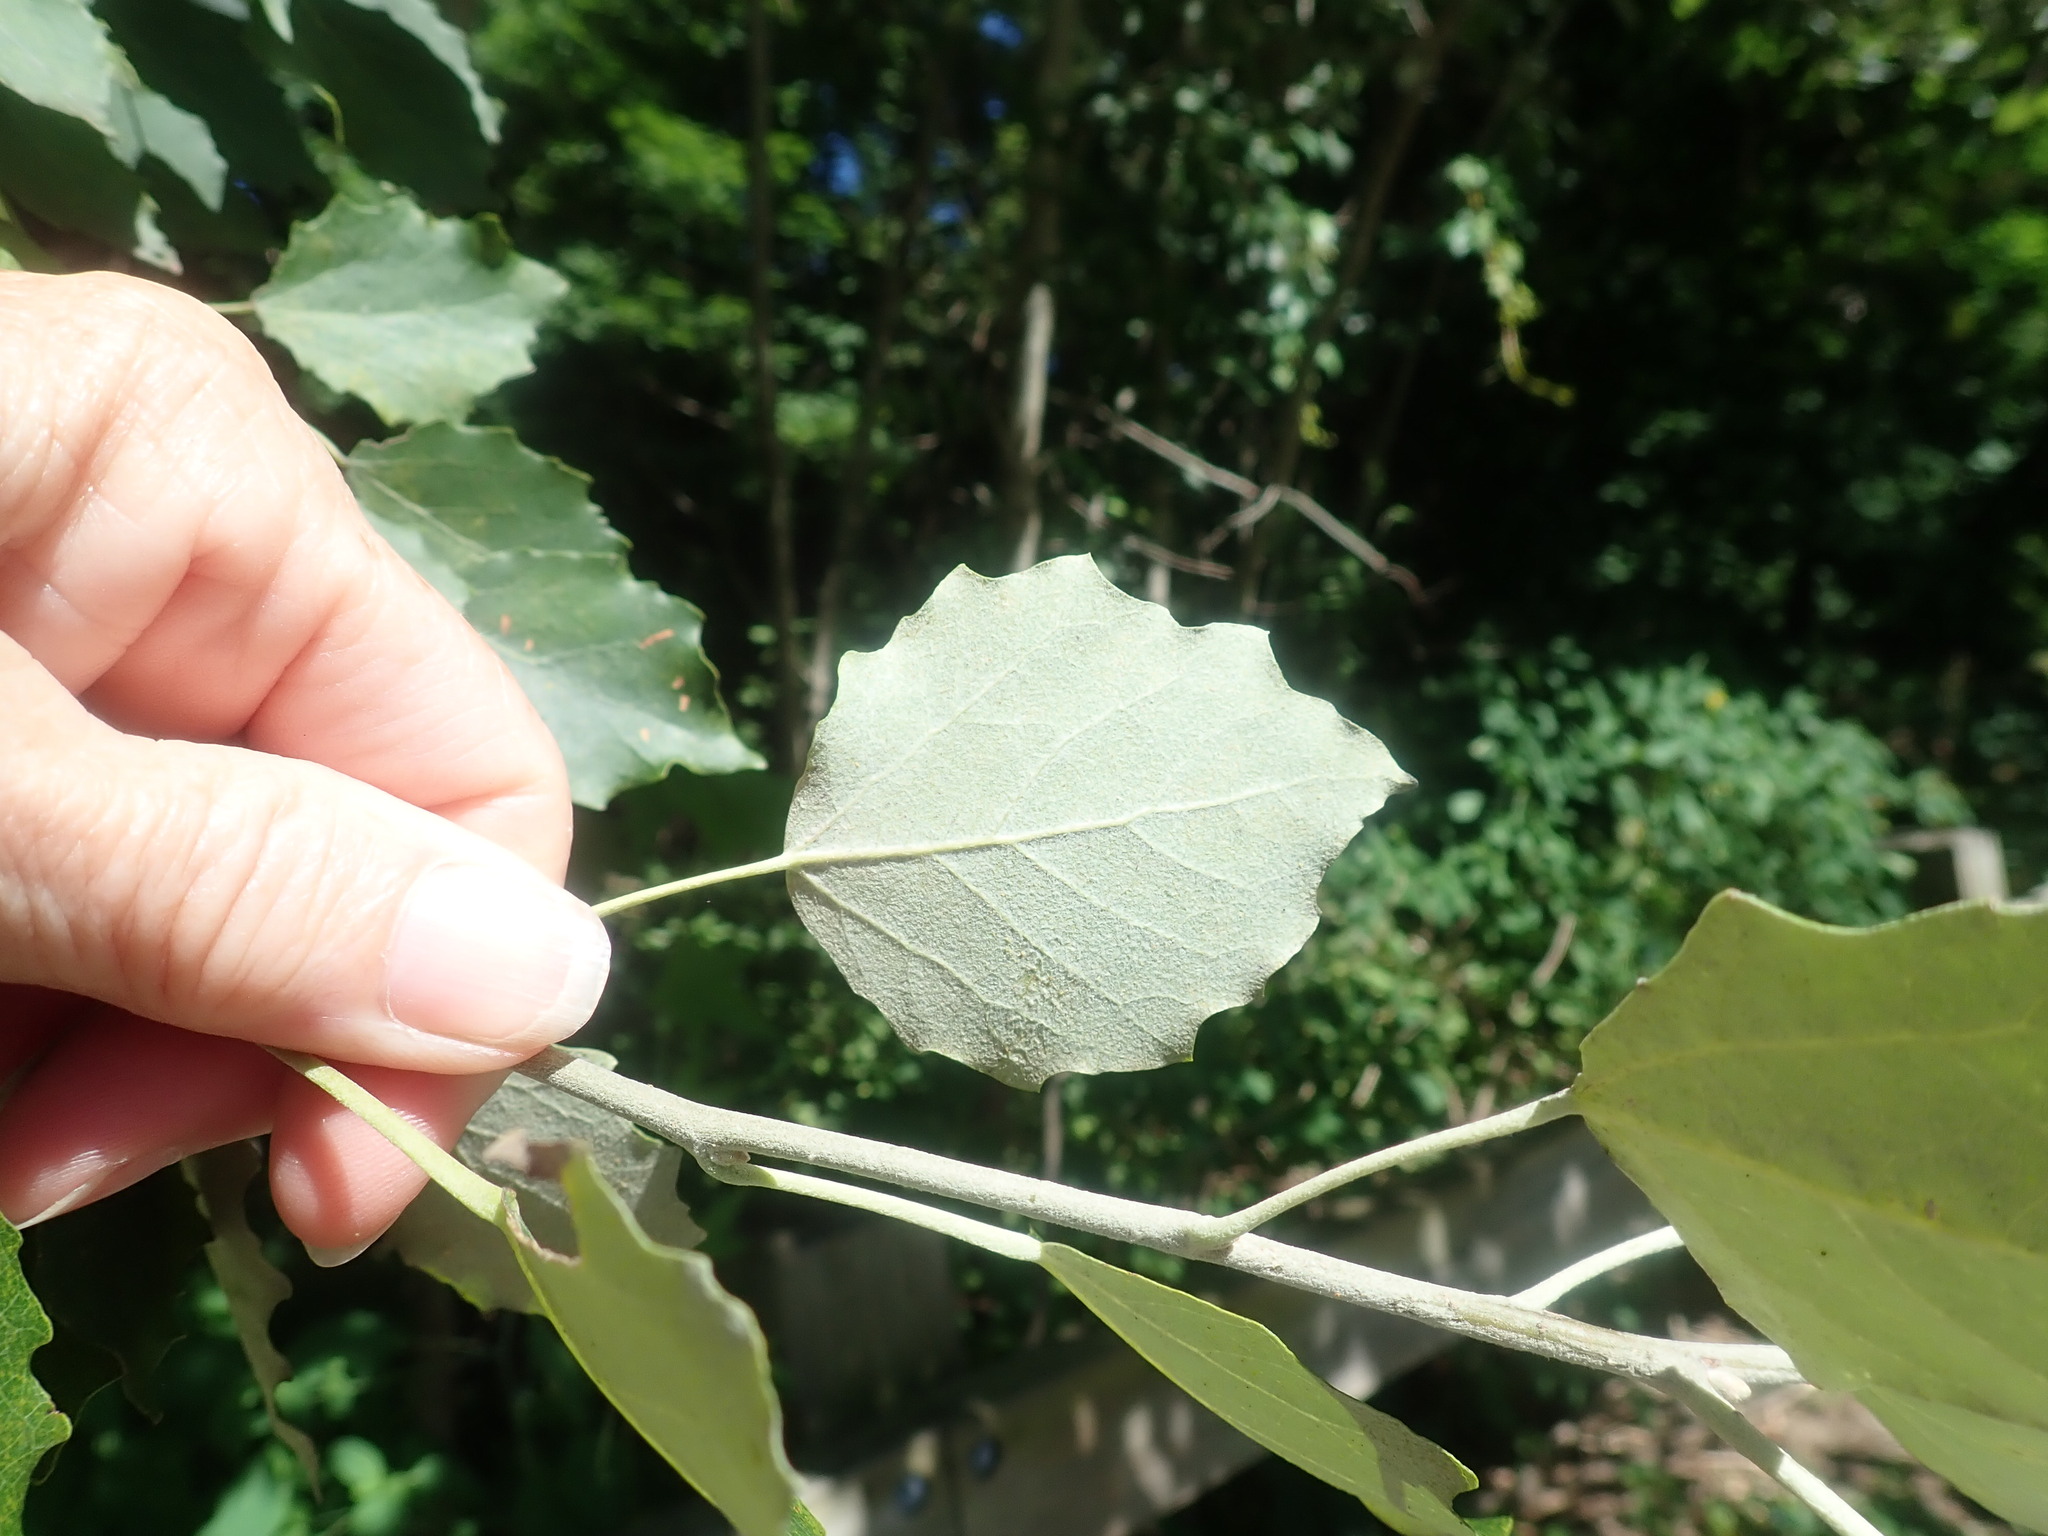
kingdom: Plantae
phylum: Tracheophyta
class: Magnoliopsida
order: Malpighiales
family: Salicaceae
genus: Populus
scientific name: Populus alba
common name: White poplar
